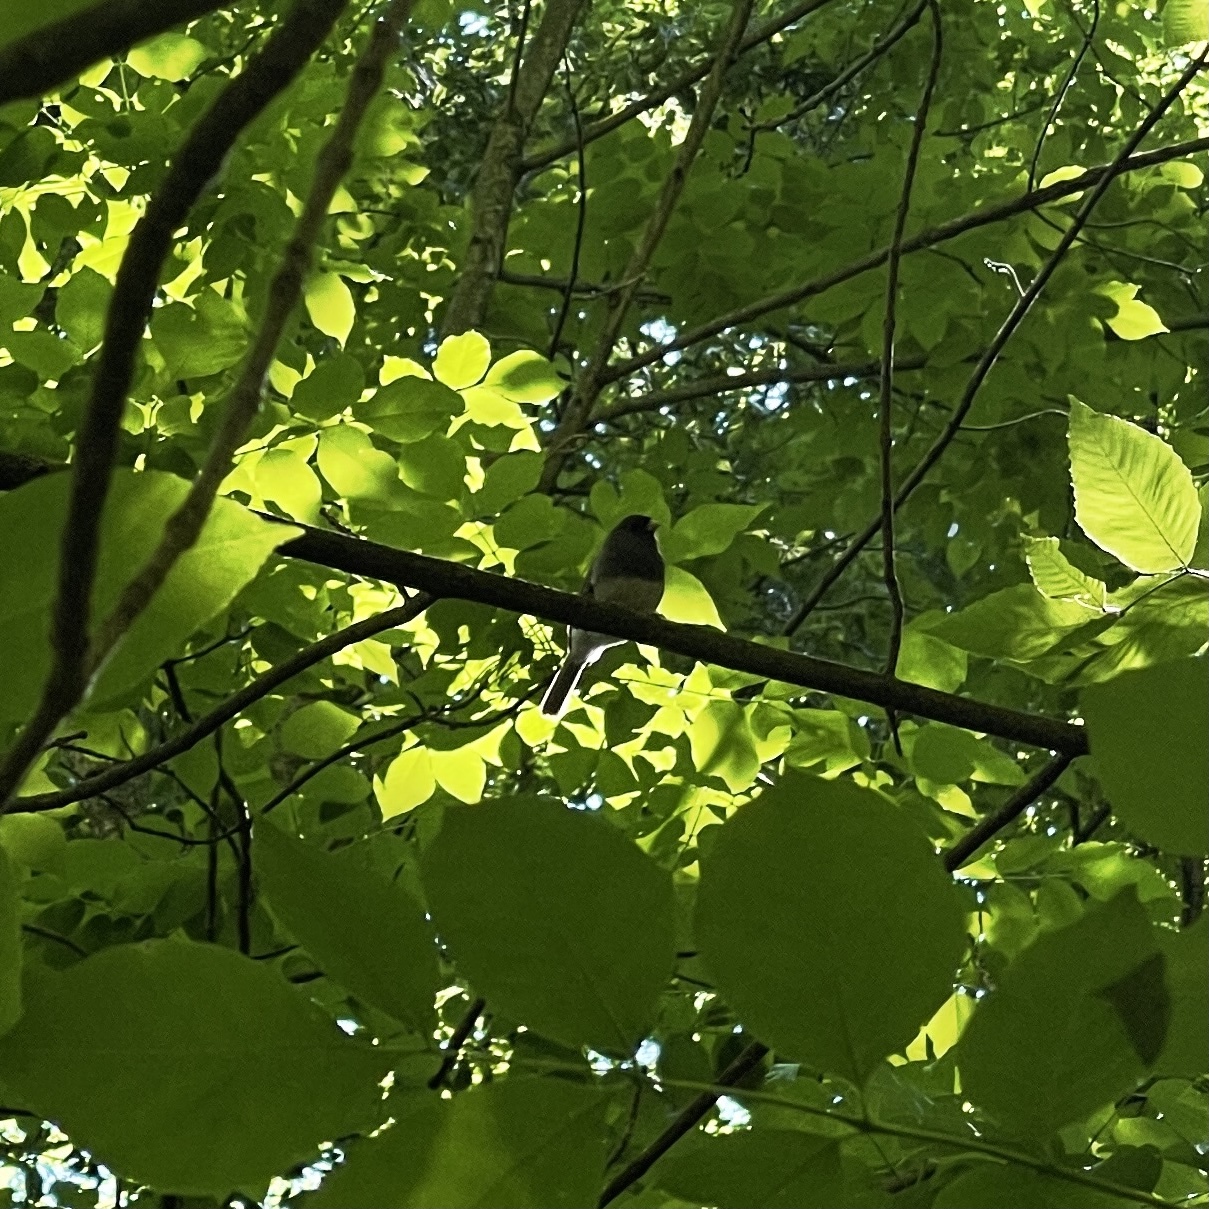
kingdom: Animalia
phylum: Chordata
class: Aves
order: Passeriformes
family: Passerellidae
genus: Junco
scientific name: Junco hyemalis
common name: Dark-eyed junco
